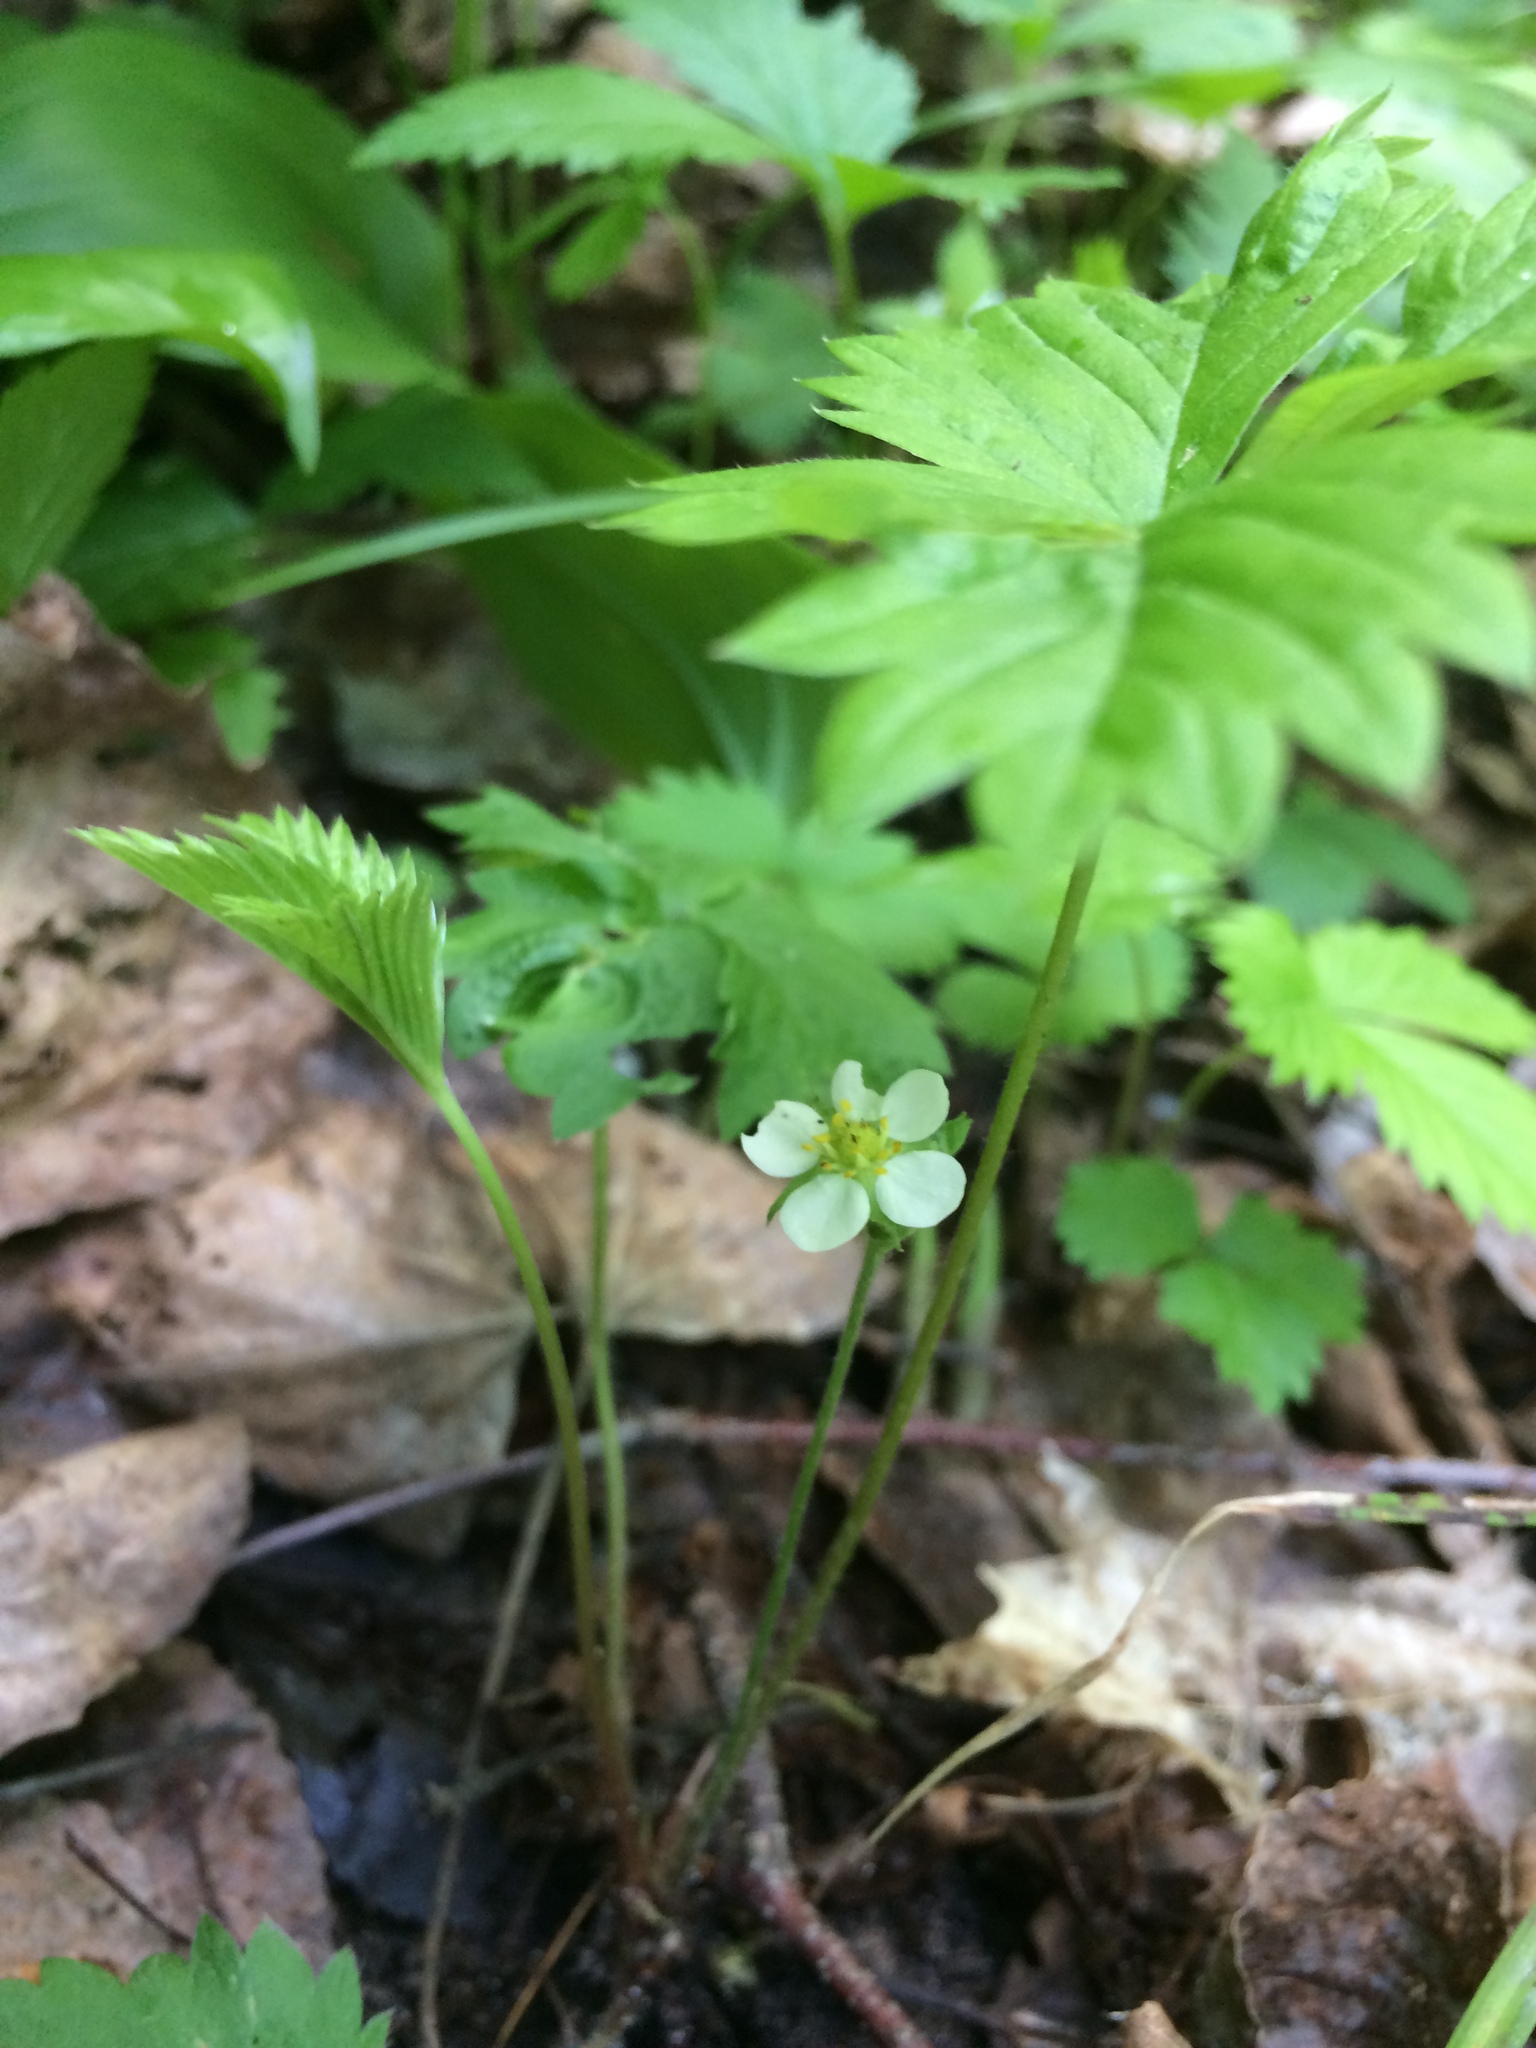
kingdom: Plantae
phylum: Tracheophyta
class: Magnoliopsida
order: Rosales
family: Rosaceae
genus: Fragaria
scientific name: Fragaria vesca
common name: Wild strawberry
